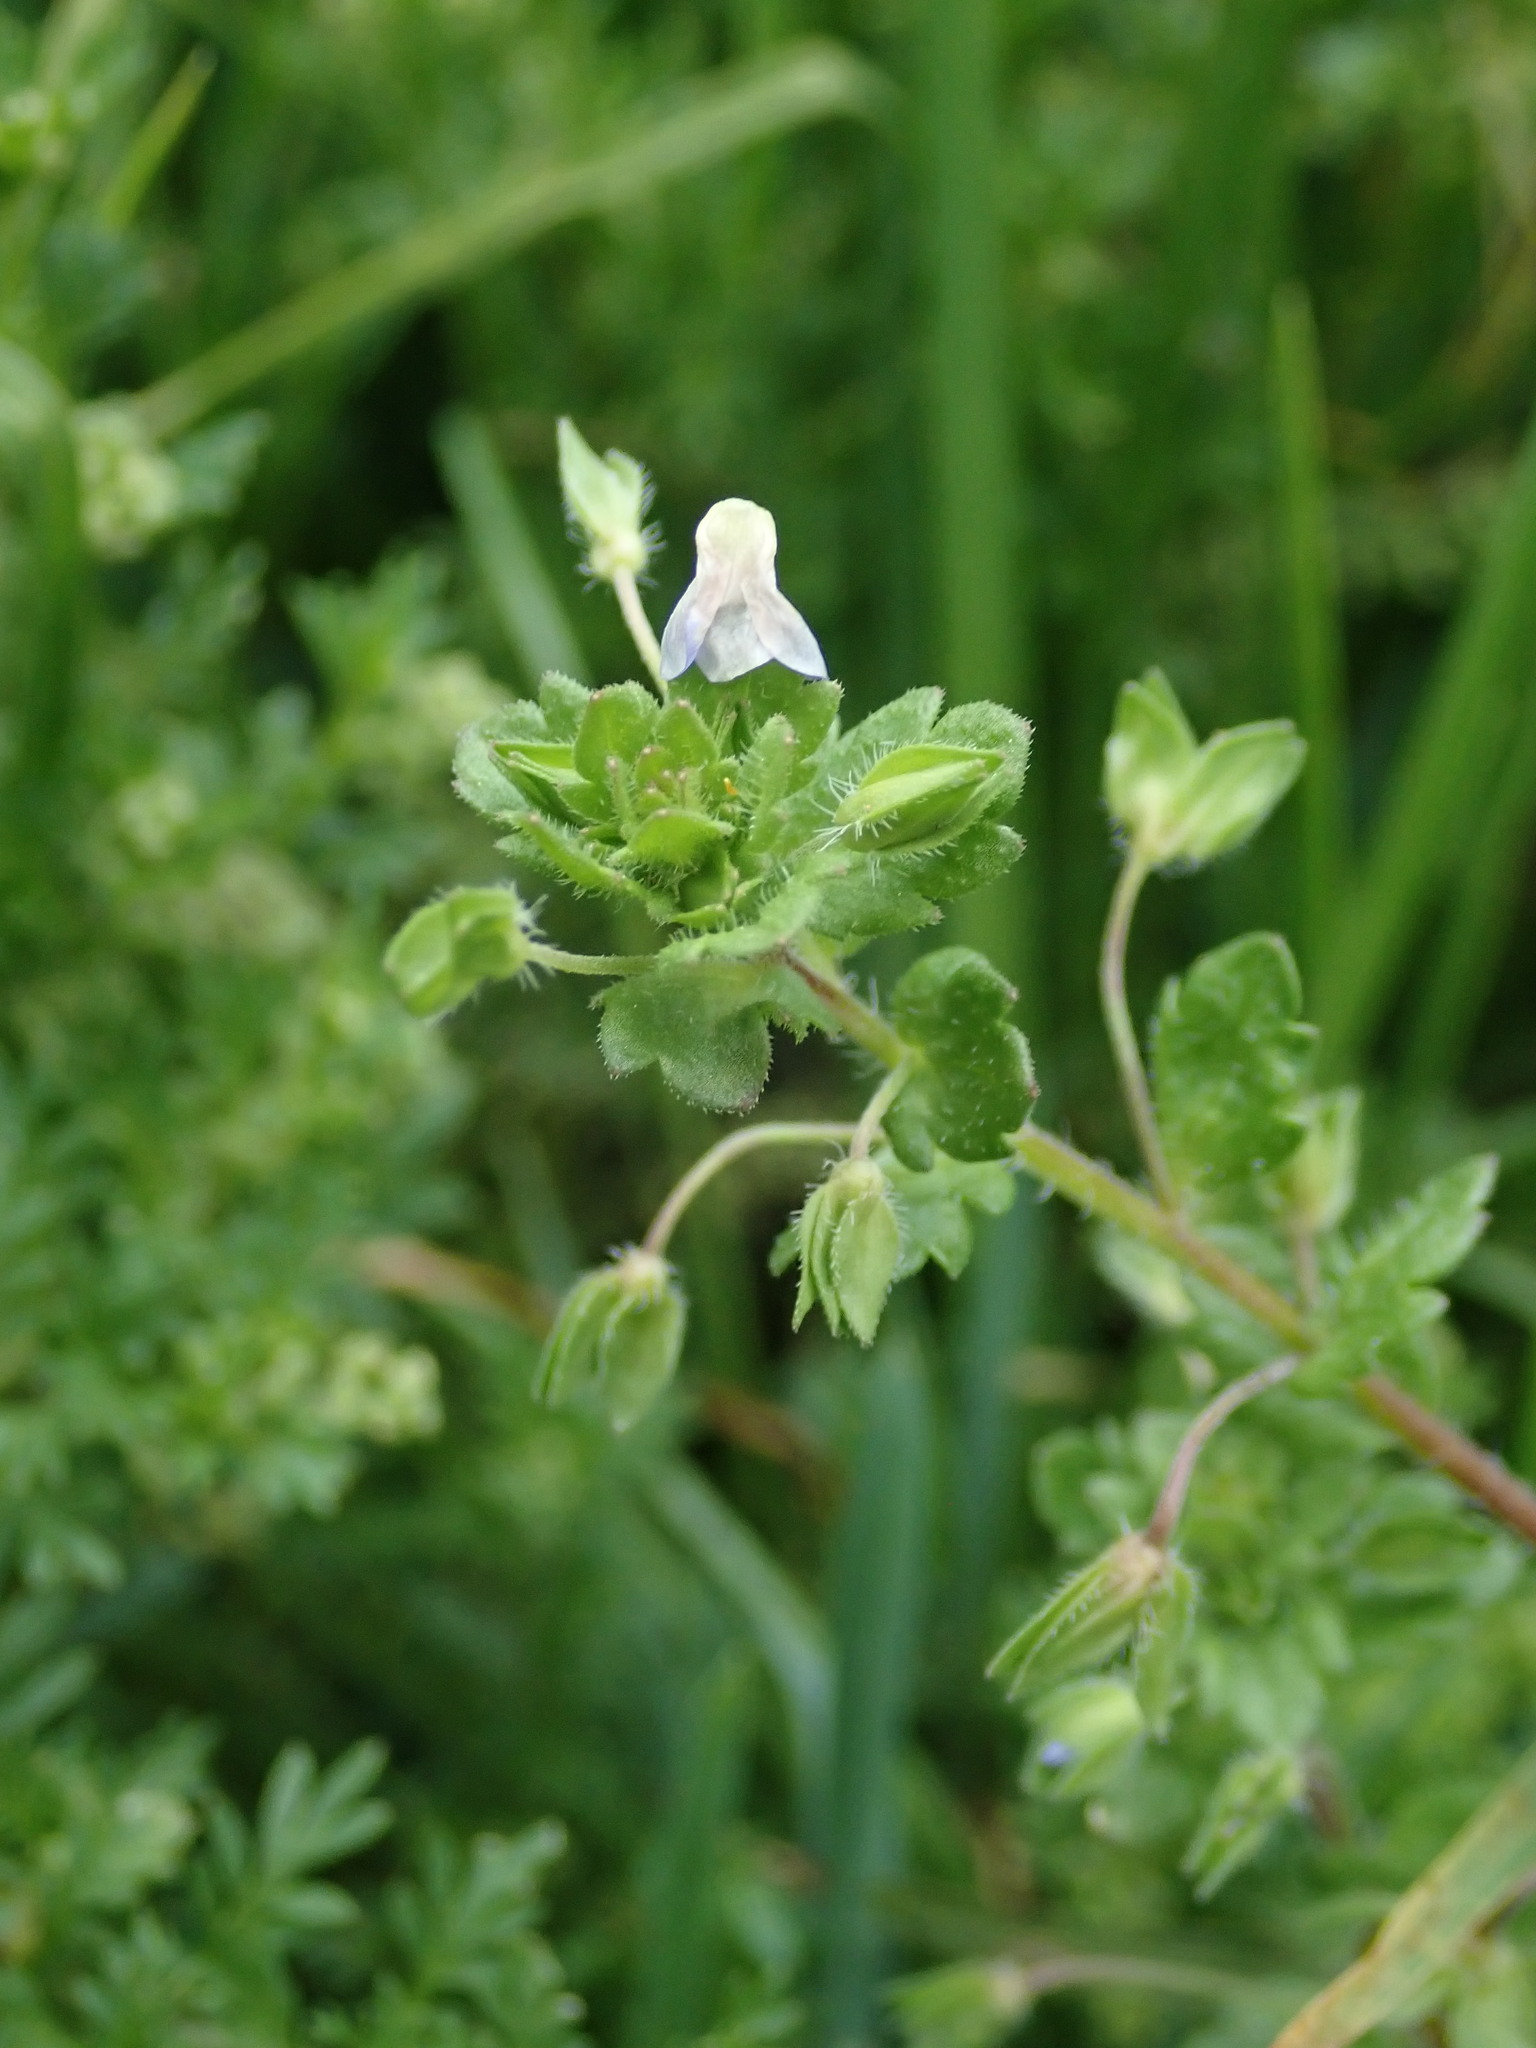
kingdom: Plantae
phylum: Tracheophyta
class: Magnoliopsida
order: Lamiales
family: Plantaginaceae
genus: Veronica
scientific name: Veronica persica
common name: Common field-speedwell
